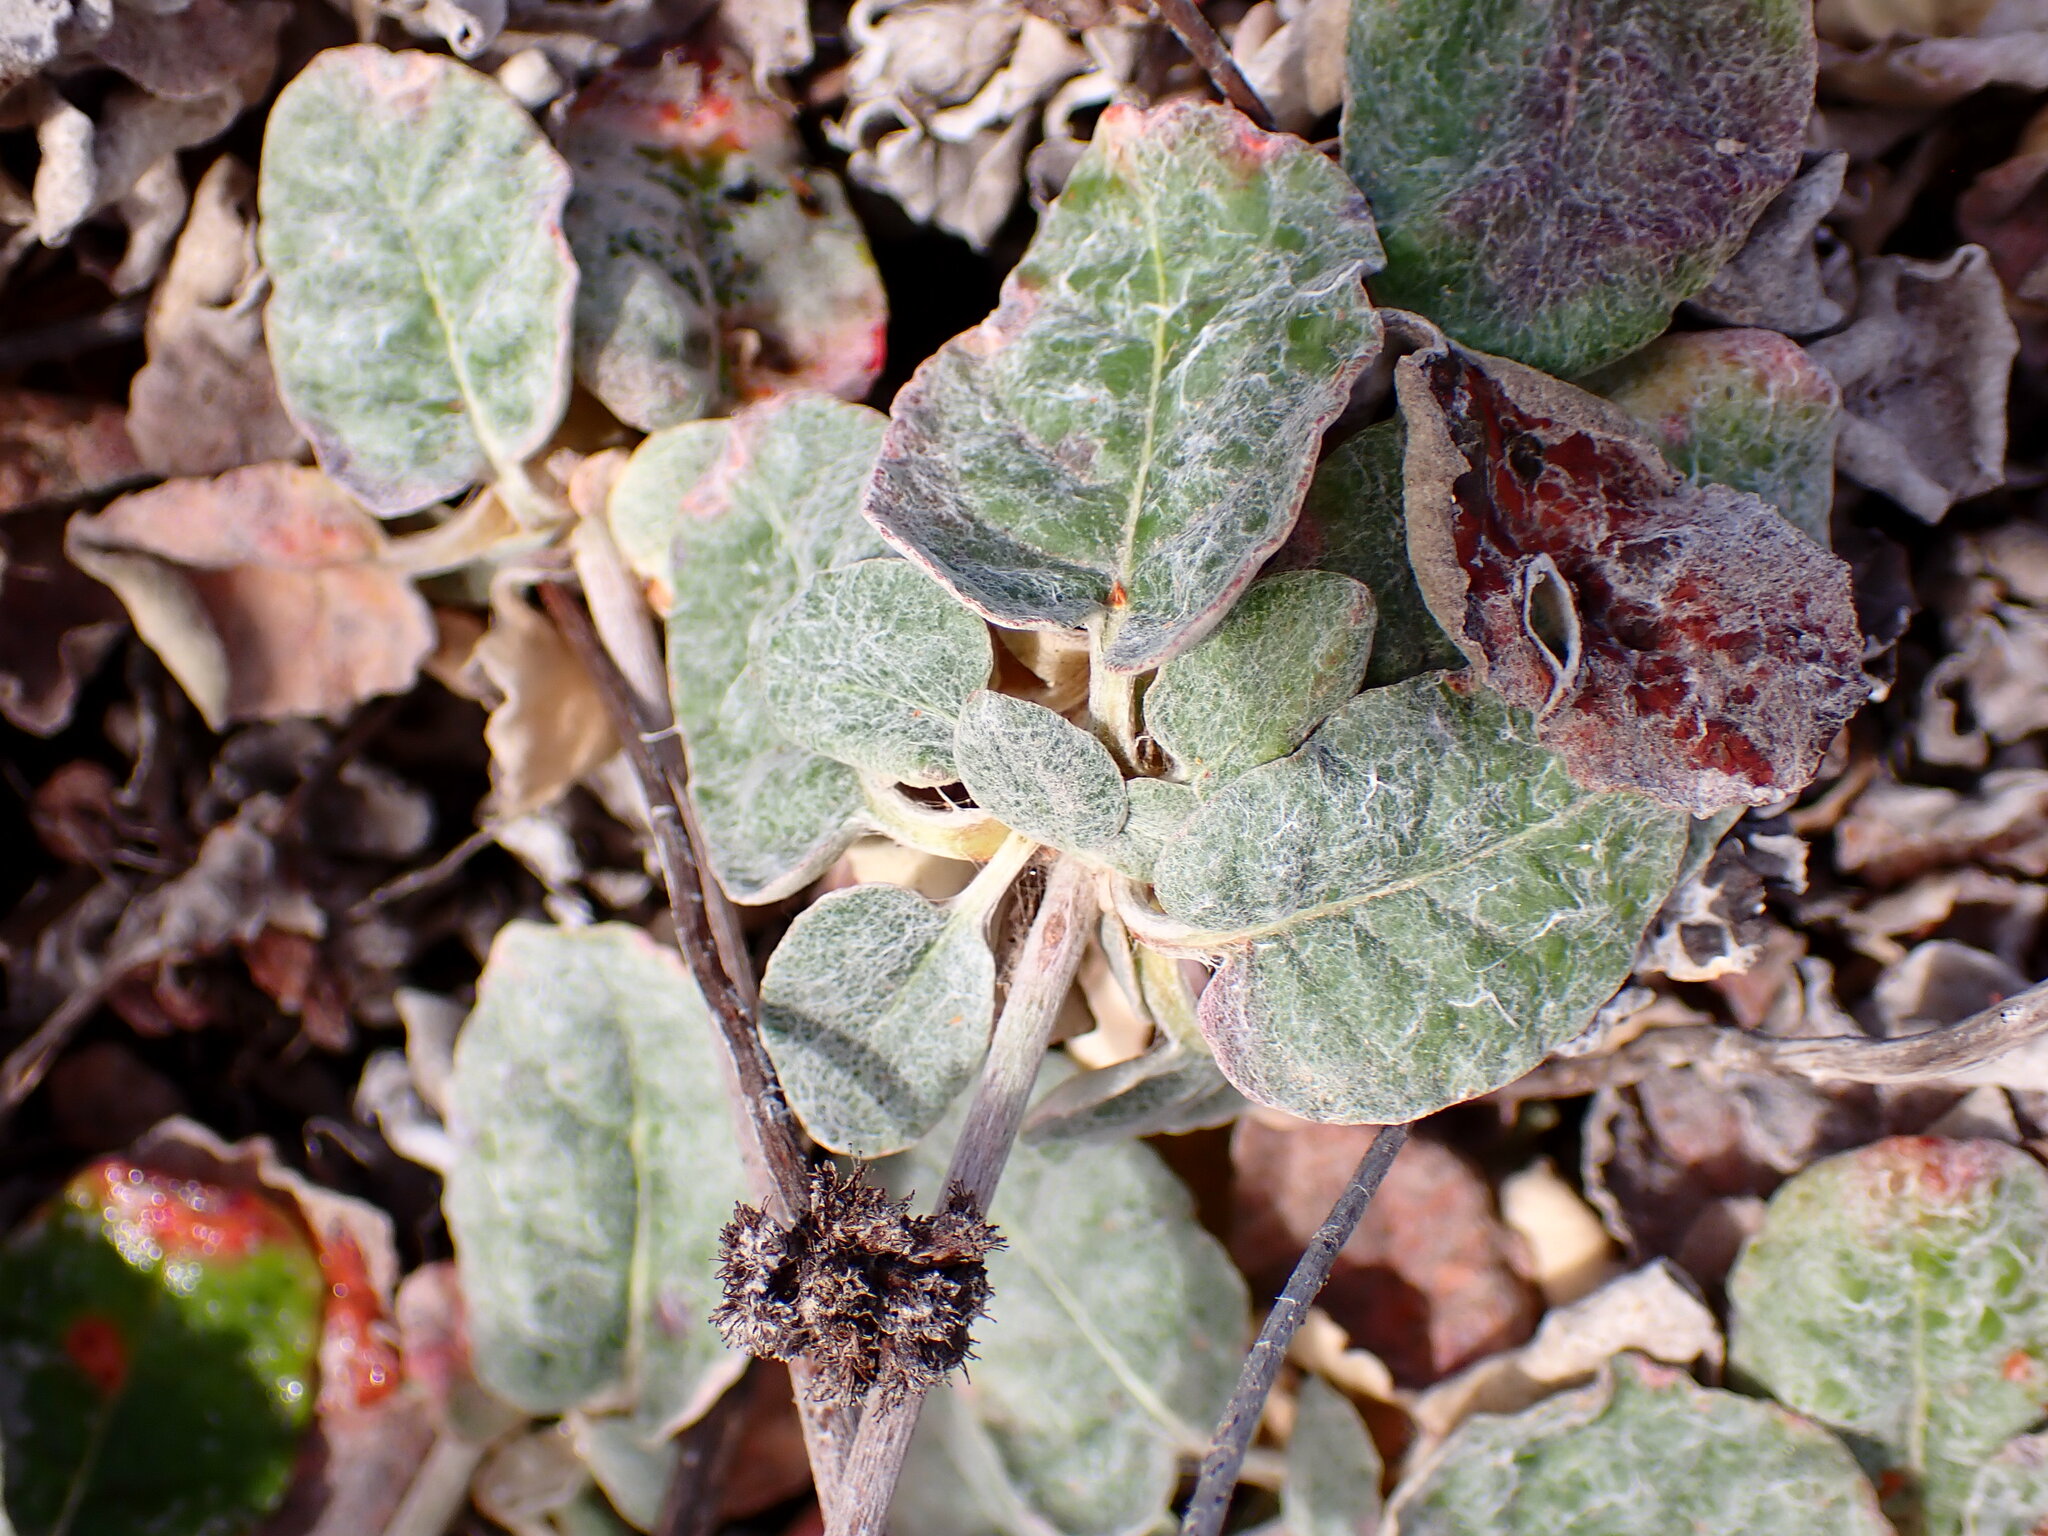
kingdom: Plantae
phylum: Tracheophyta
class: Magnoliopsida
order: Caryophyllales
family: Polygonaceae
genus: Eriogonum
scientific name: Eriogonum latifolium
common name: Seaside wild buckwheat
